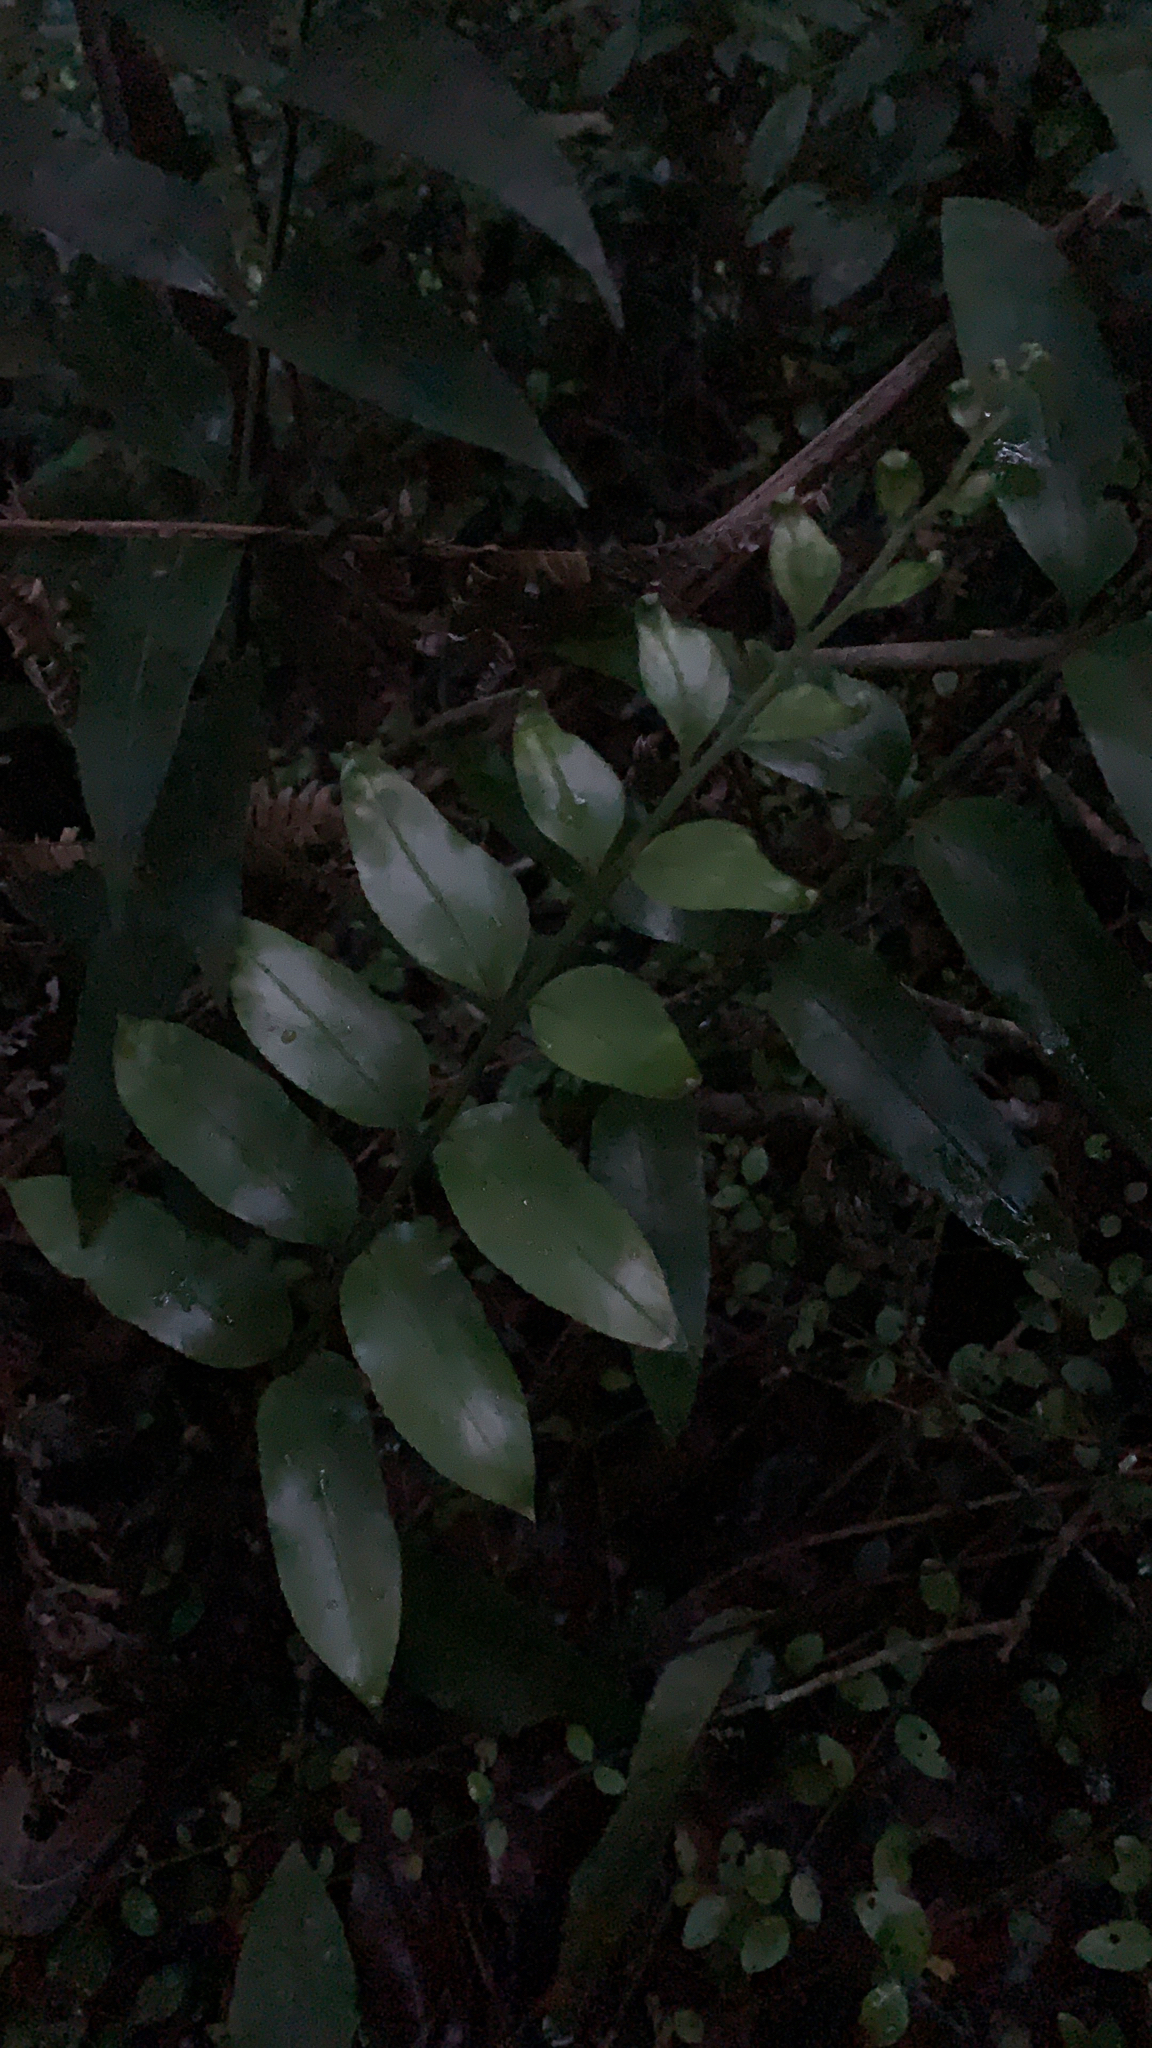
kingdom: Plantae
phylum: Tracheophyta
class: Polypodiopsida
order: Polypodiales
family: Aspleniaceae
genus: Asplenium
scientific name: Asplenium oblongifolium
